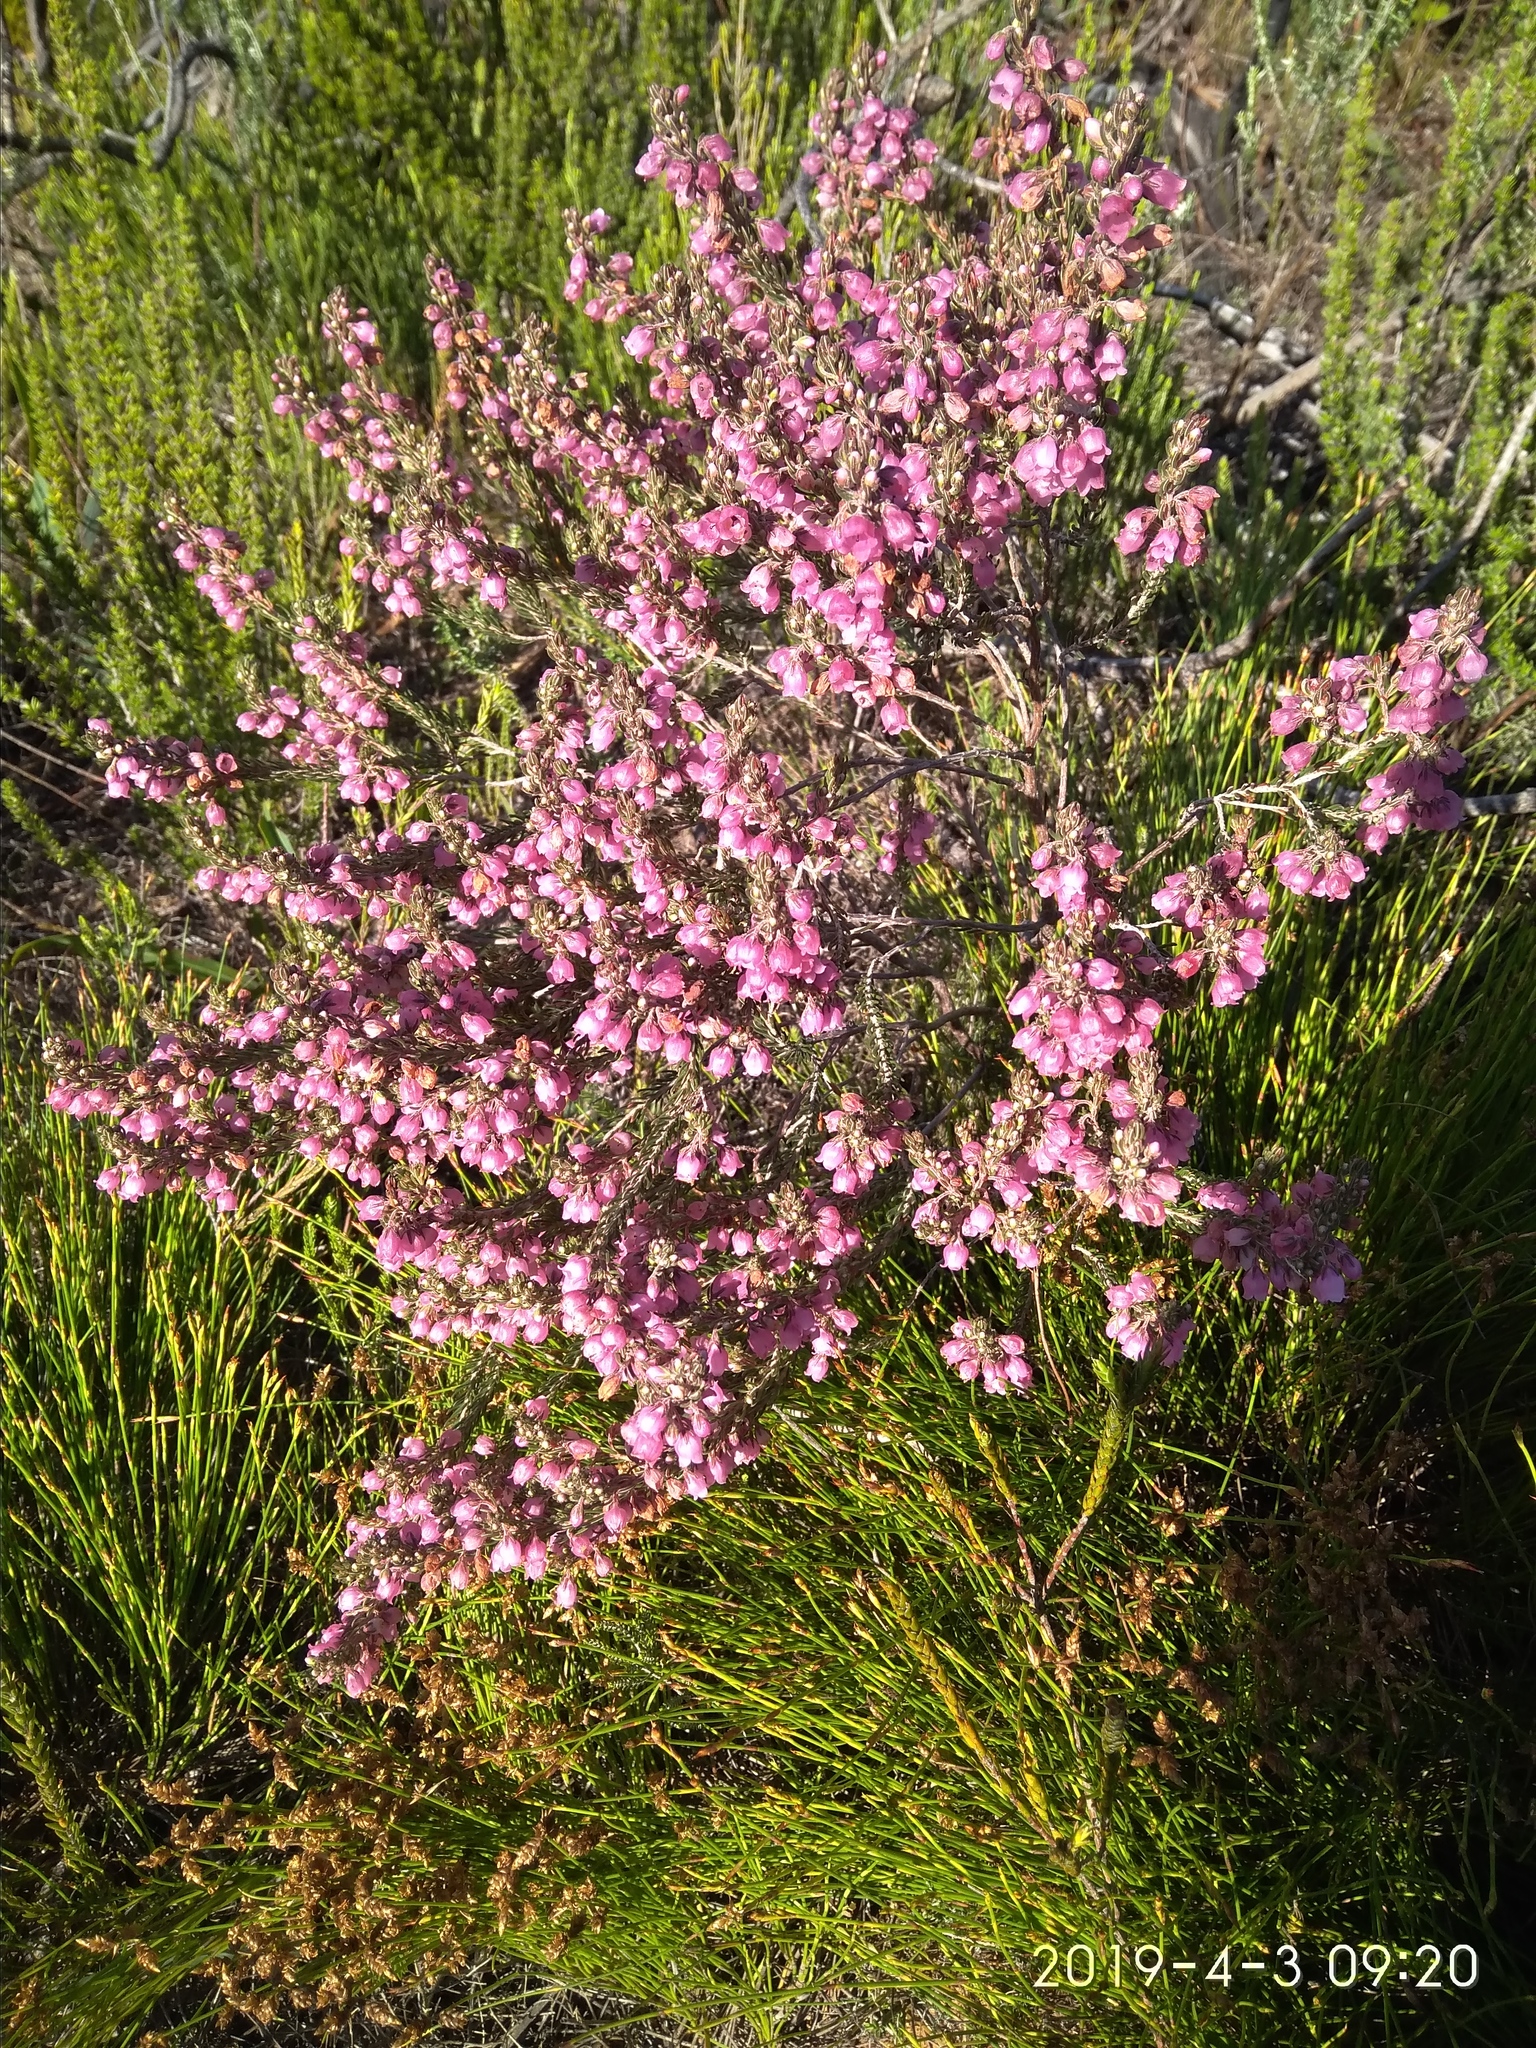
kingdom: Plantae
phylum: Tracheophyta
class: Magnoliopsida
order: Ericales
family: Ericaceae
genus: Erica
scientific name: Erica viscaria
